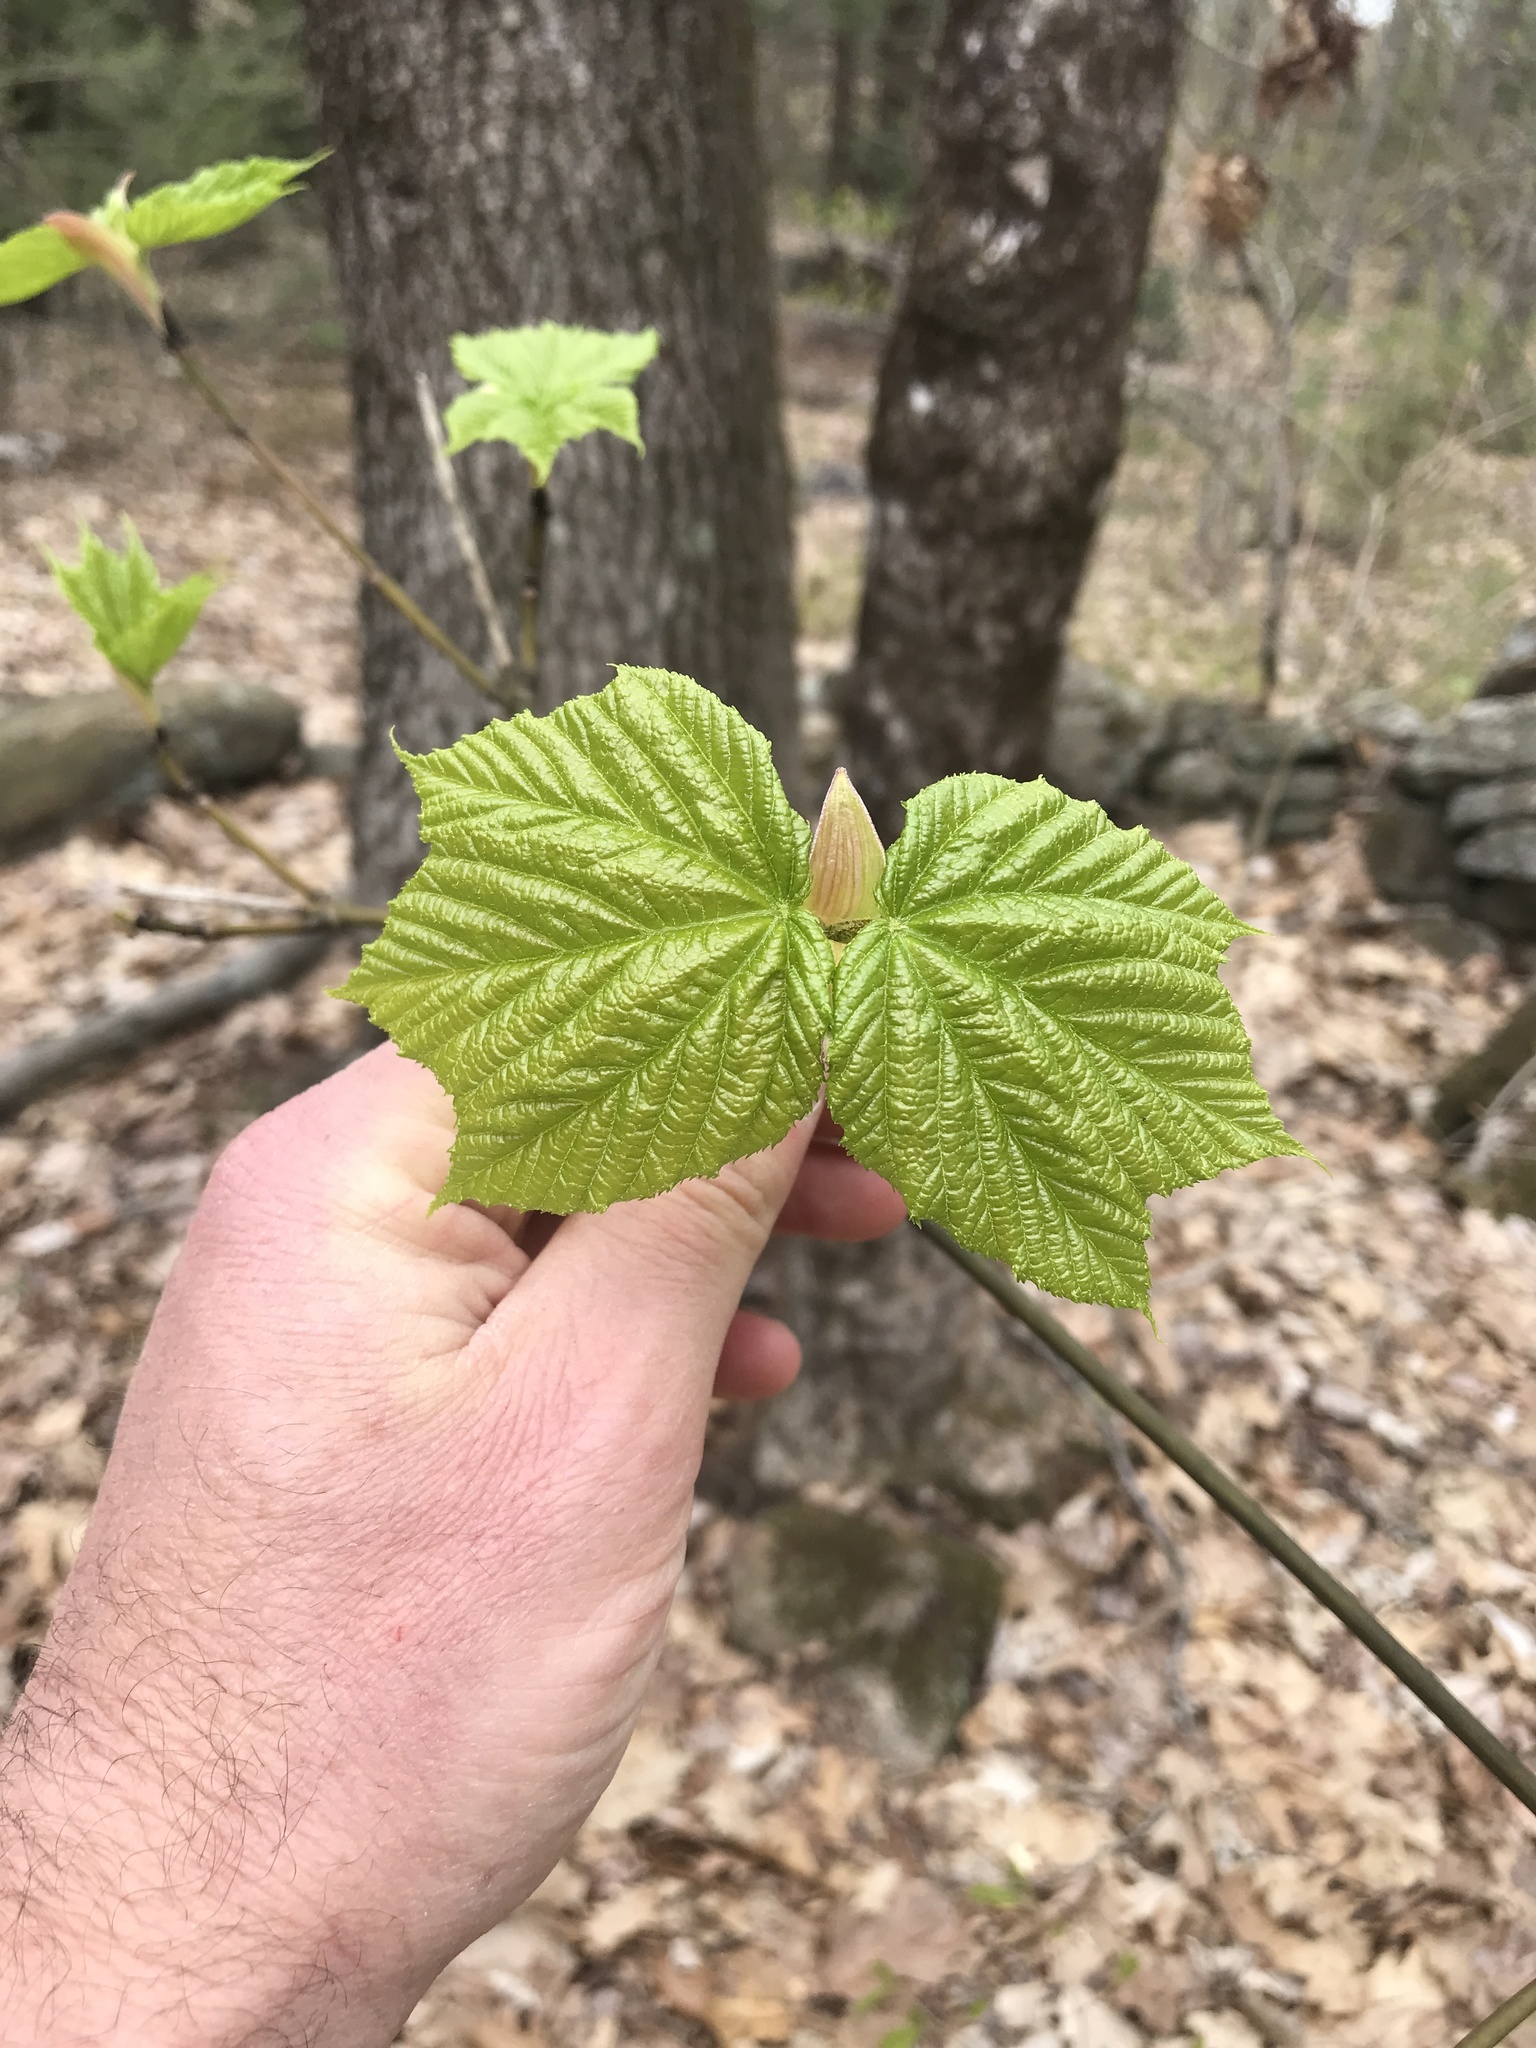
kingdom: Plantae
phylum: Tracheophyta
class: Magnoliopsida
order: Sapindales
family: Sapindaceae
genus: Acer
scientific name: Acer pensylvanicum
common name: Moosewood
